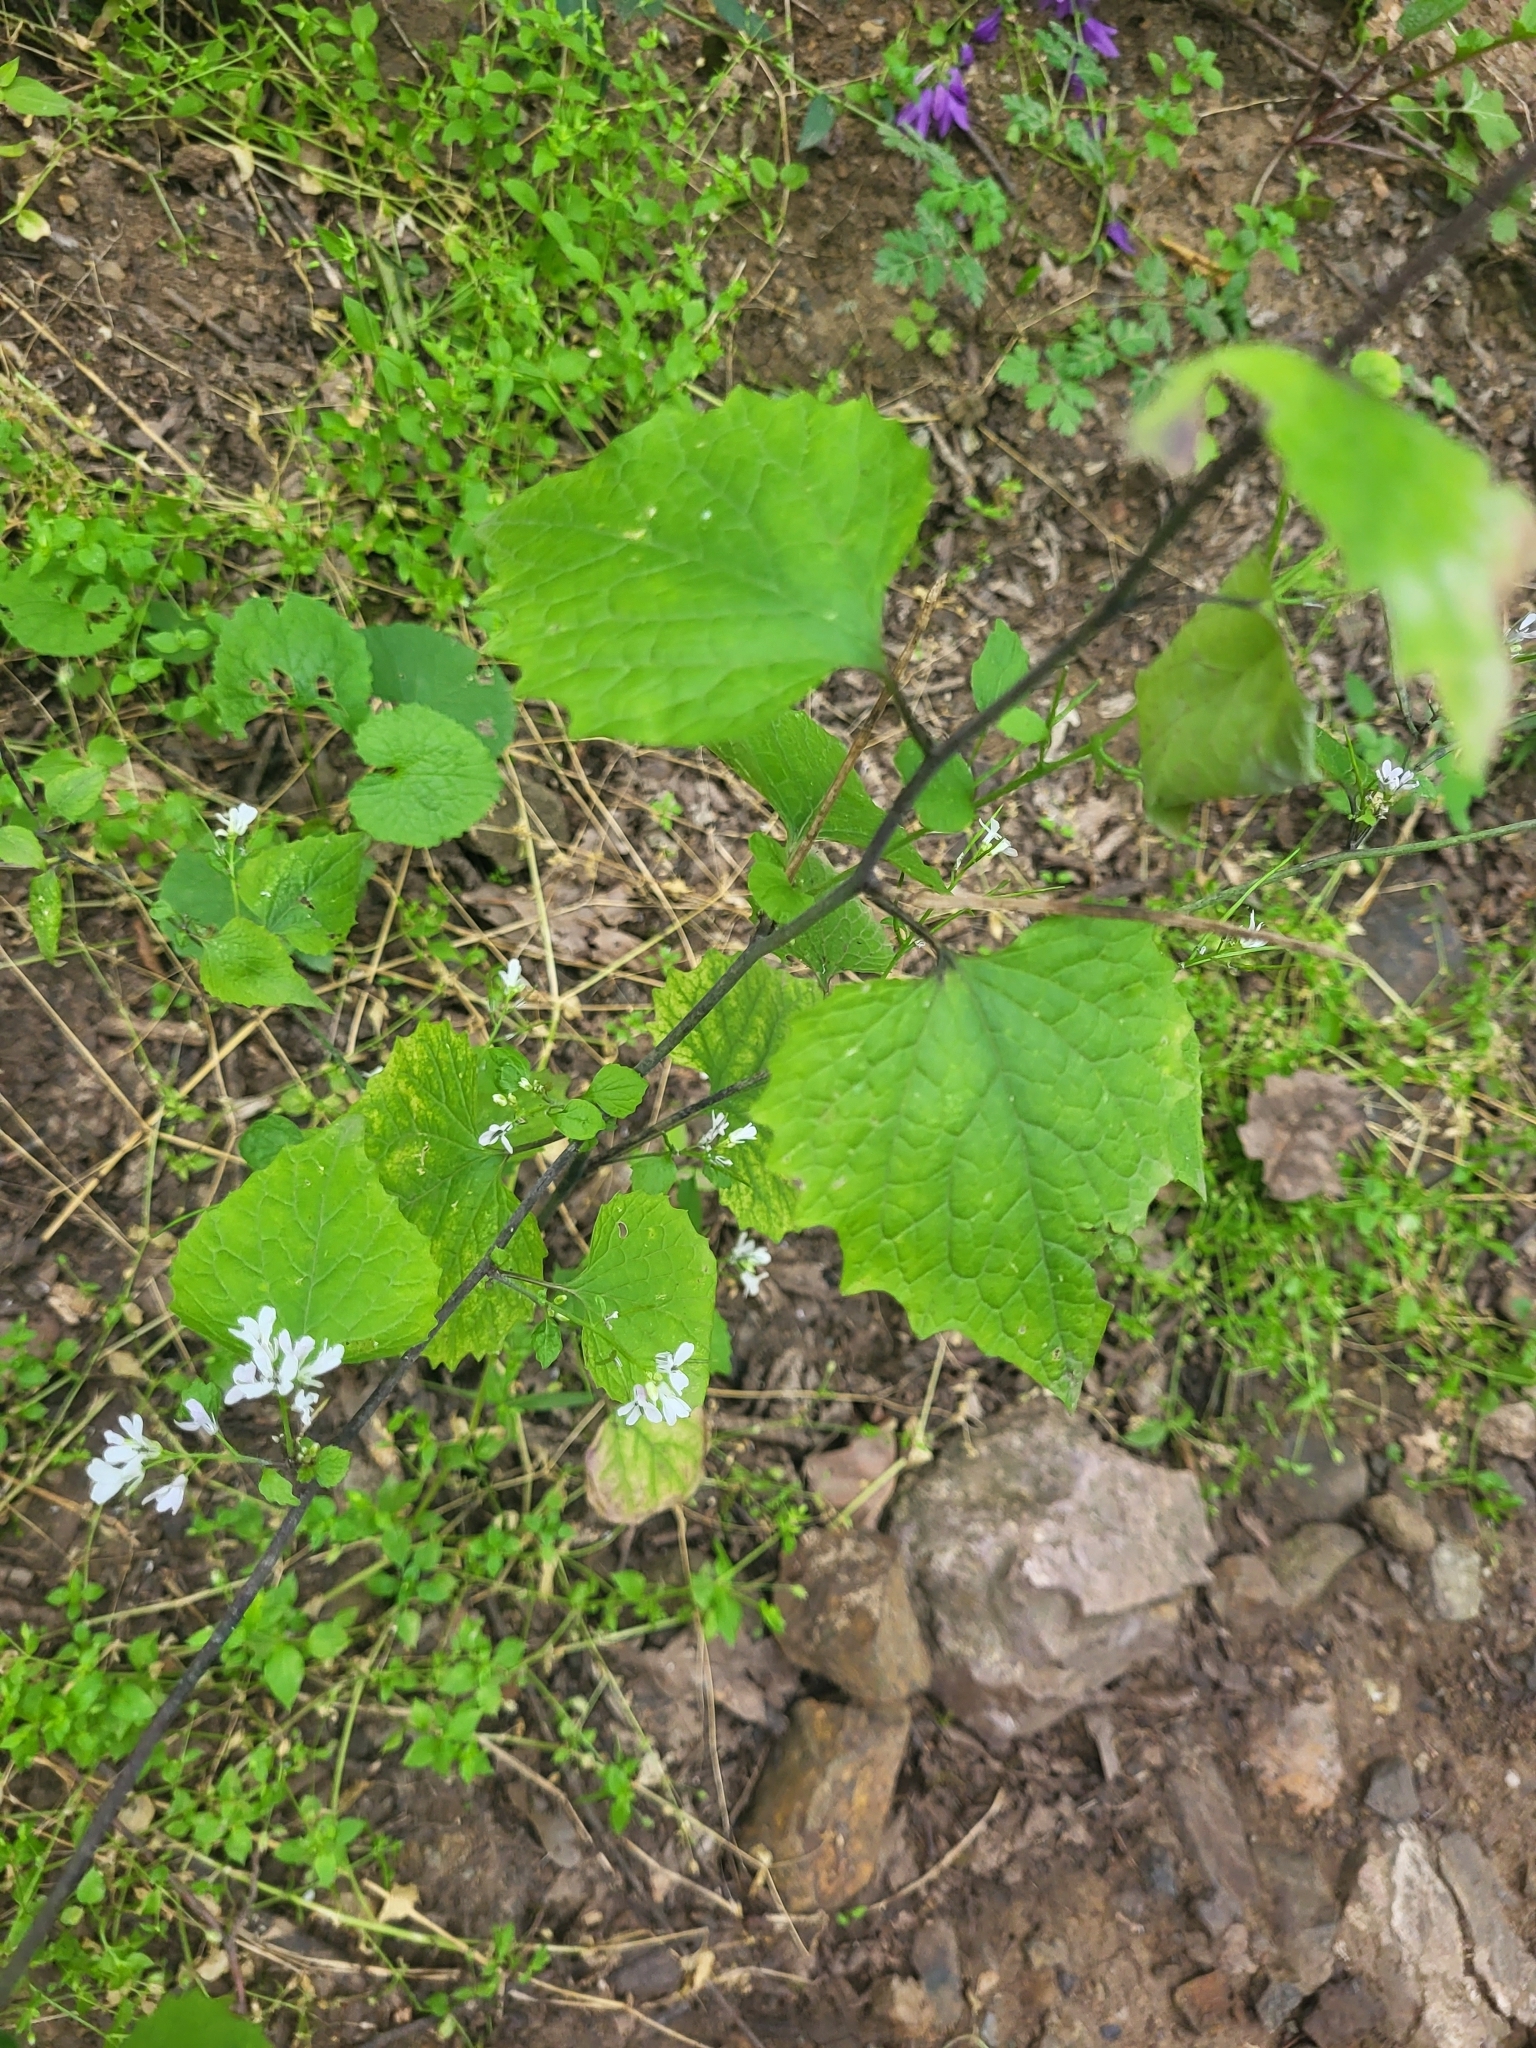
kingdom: Plantae
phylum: Tracheophyta
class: Magnoliopsida
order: Brassicales
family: Brassicaceae
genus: Alliaria
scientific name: Alliaria petiolata
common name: Garlic mustard
